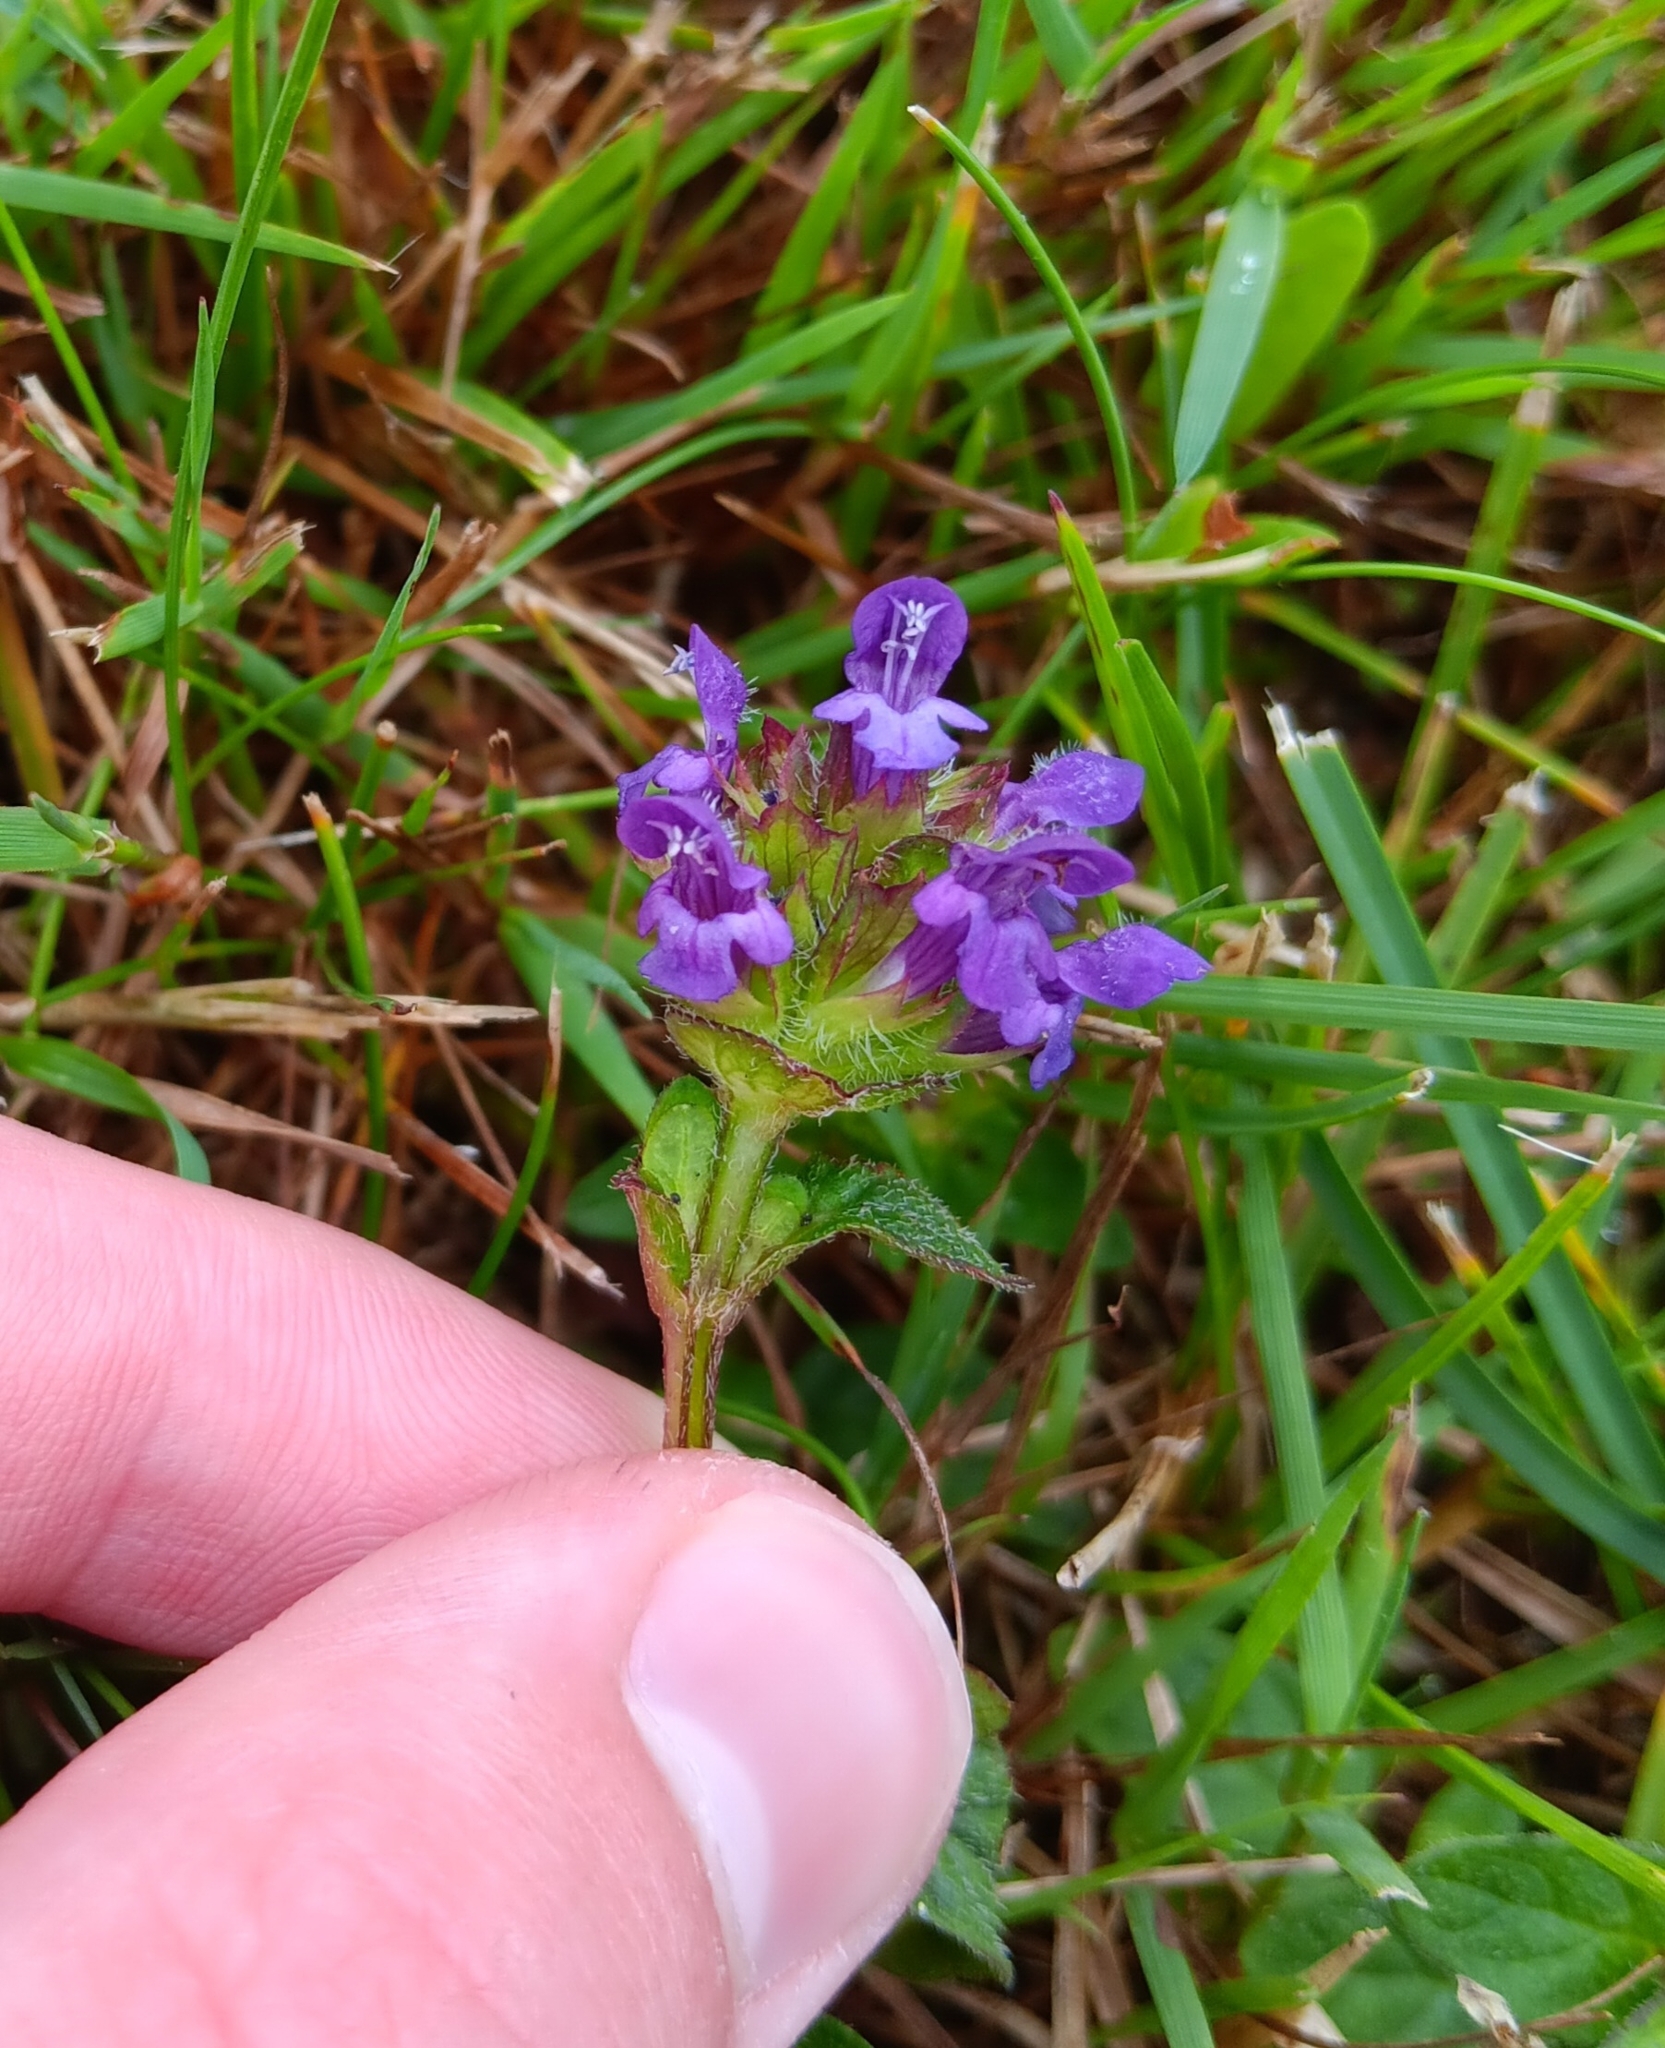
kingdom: Plantae
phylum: Tracheophyta
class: Magnoliopsida
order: Lamiales
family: Lamiaceae
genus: Prunella
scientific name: Prunella vulgaris
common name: Heal-all
